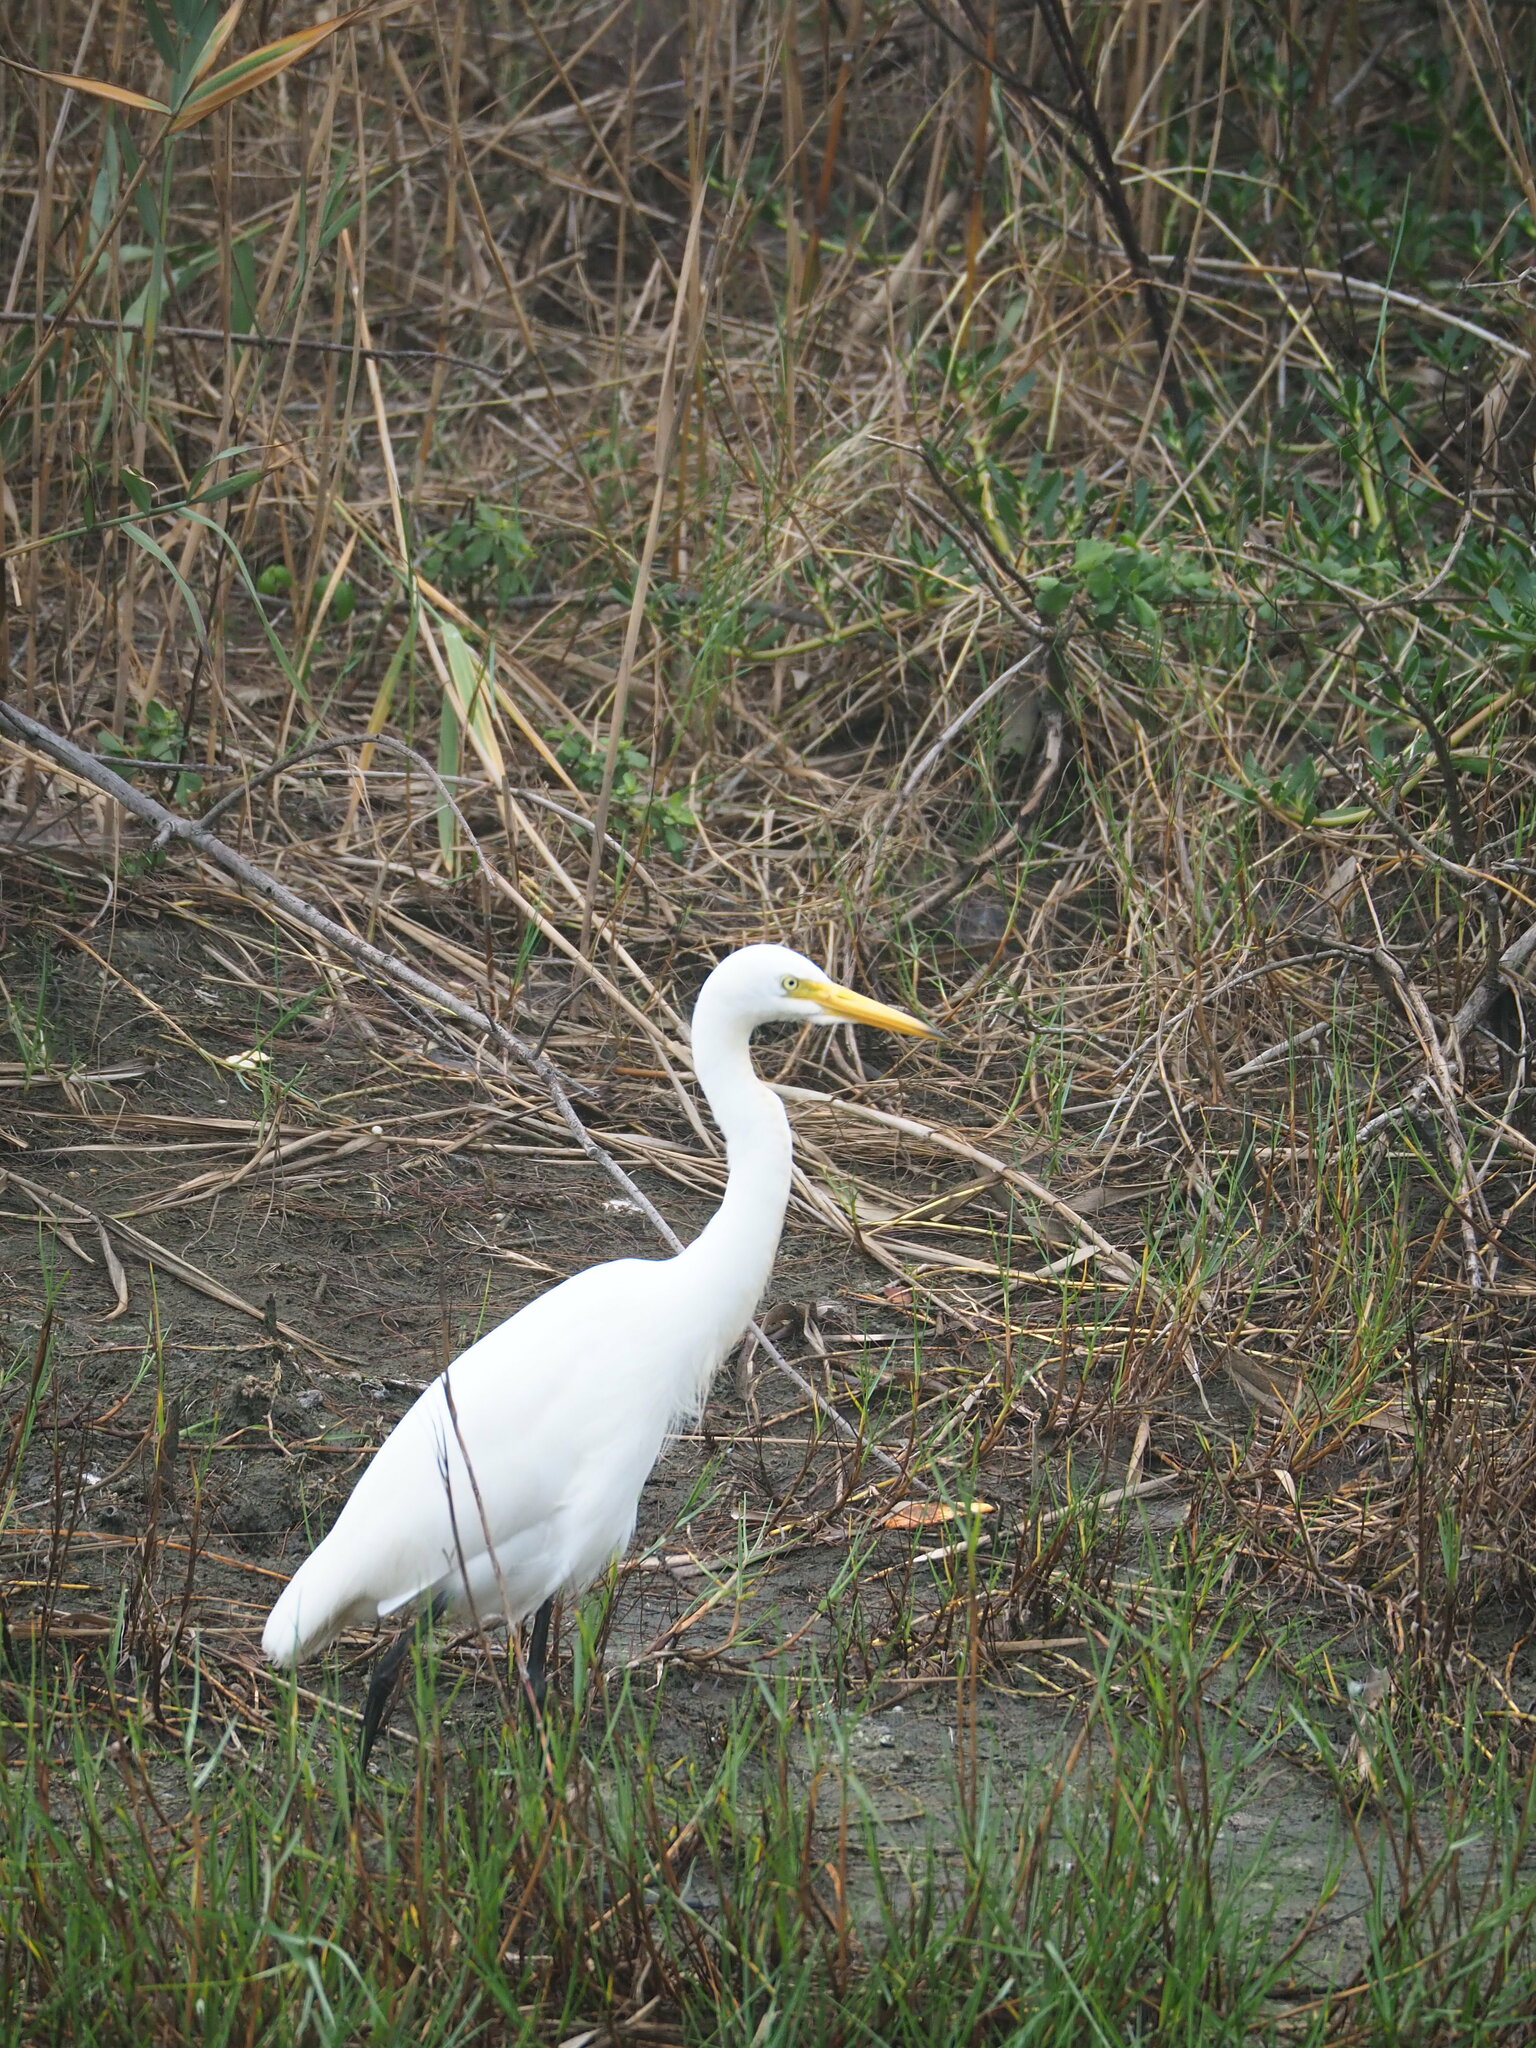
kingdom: Animalia
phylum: Chordata
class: Aves
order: Pelecaniformes
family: Ardeidae
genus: Egretta
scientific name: Egretta intermedia
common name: Intermediate egret
